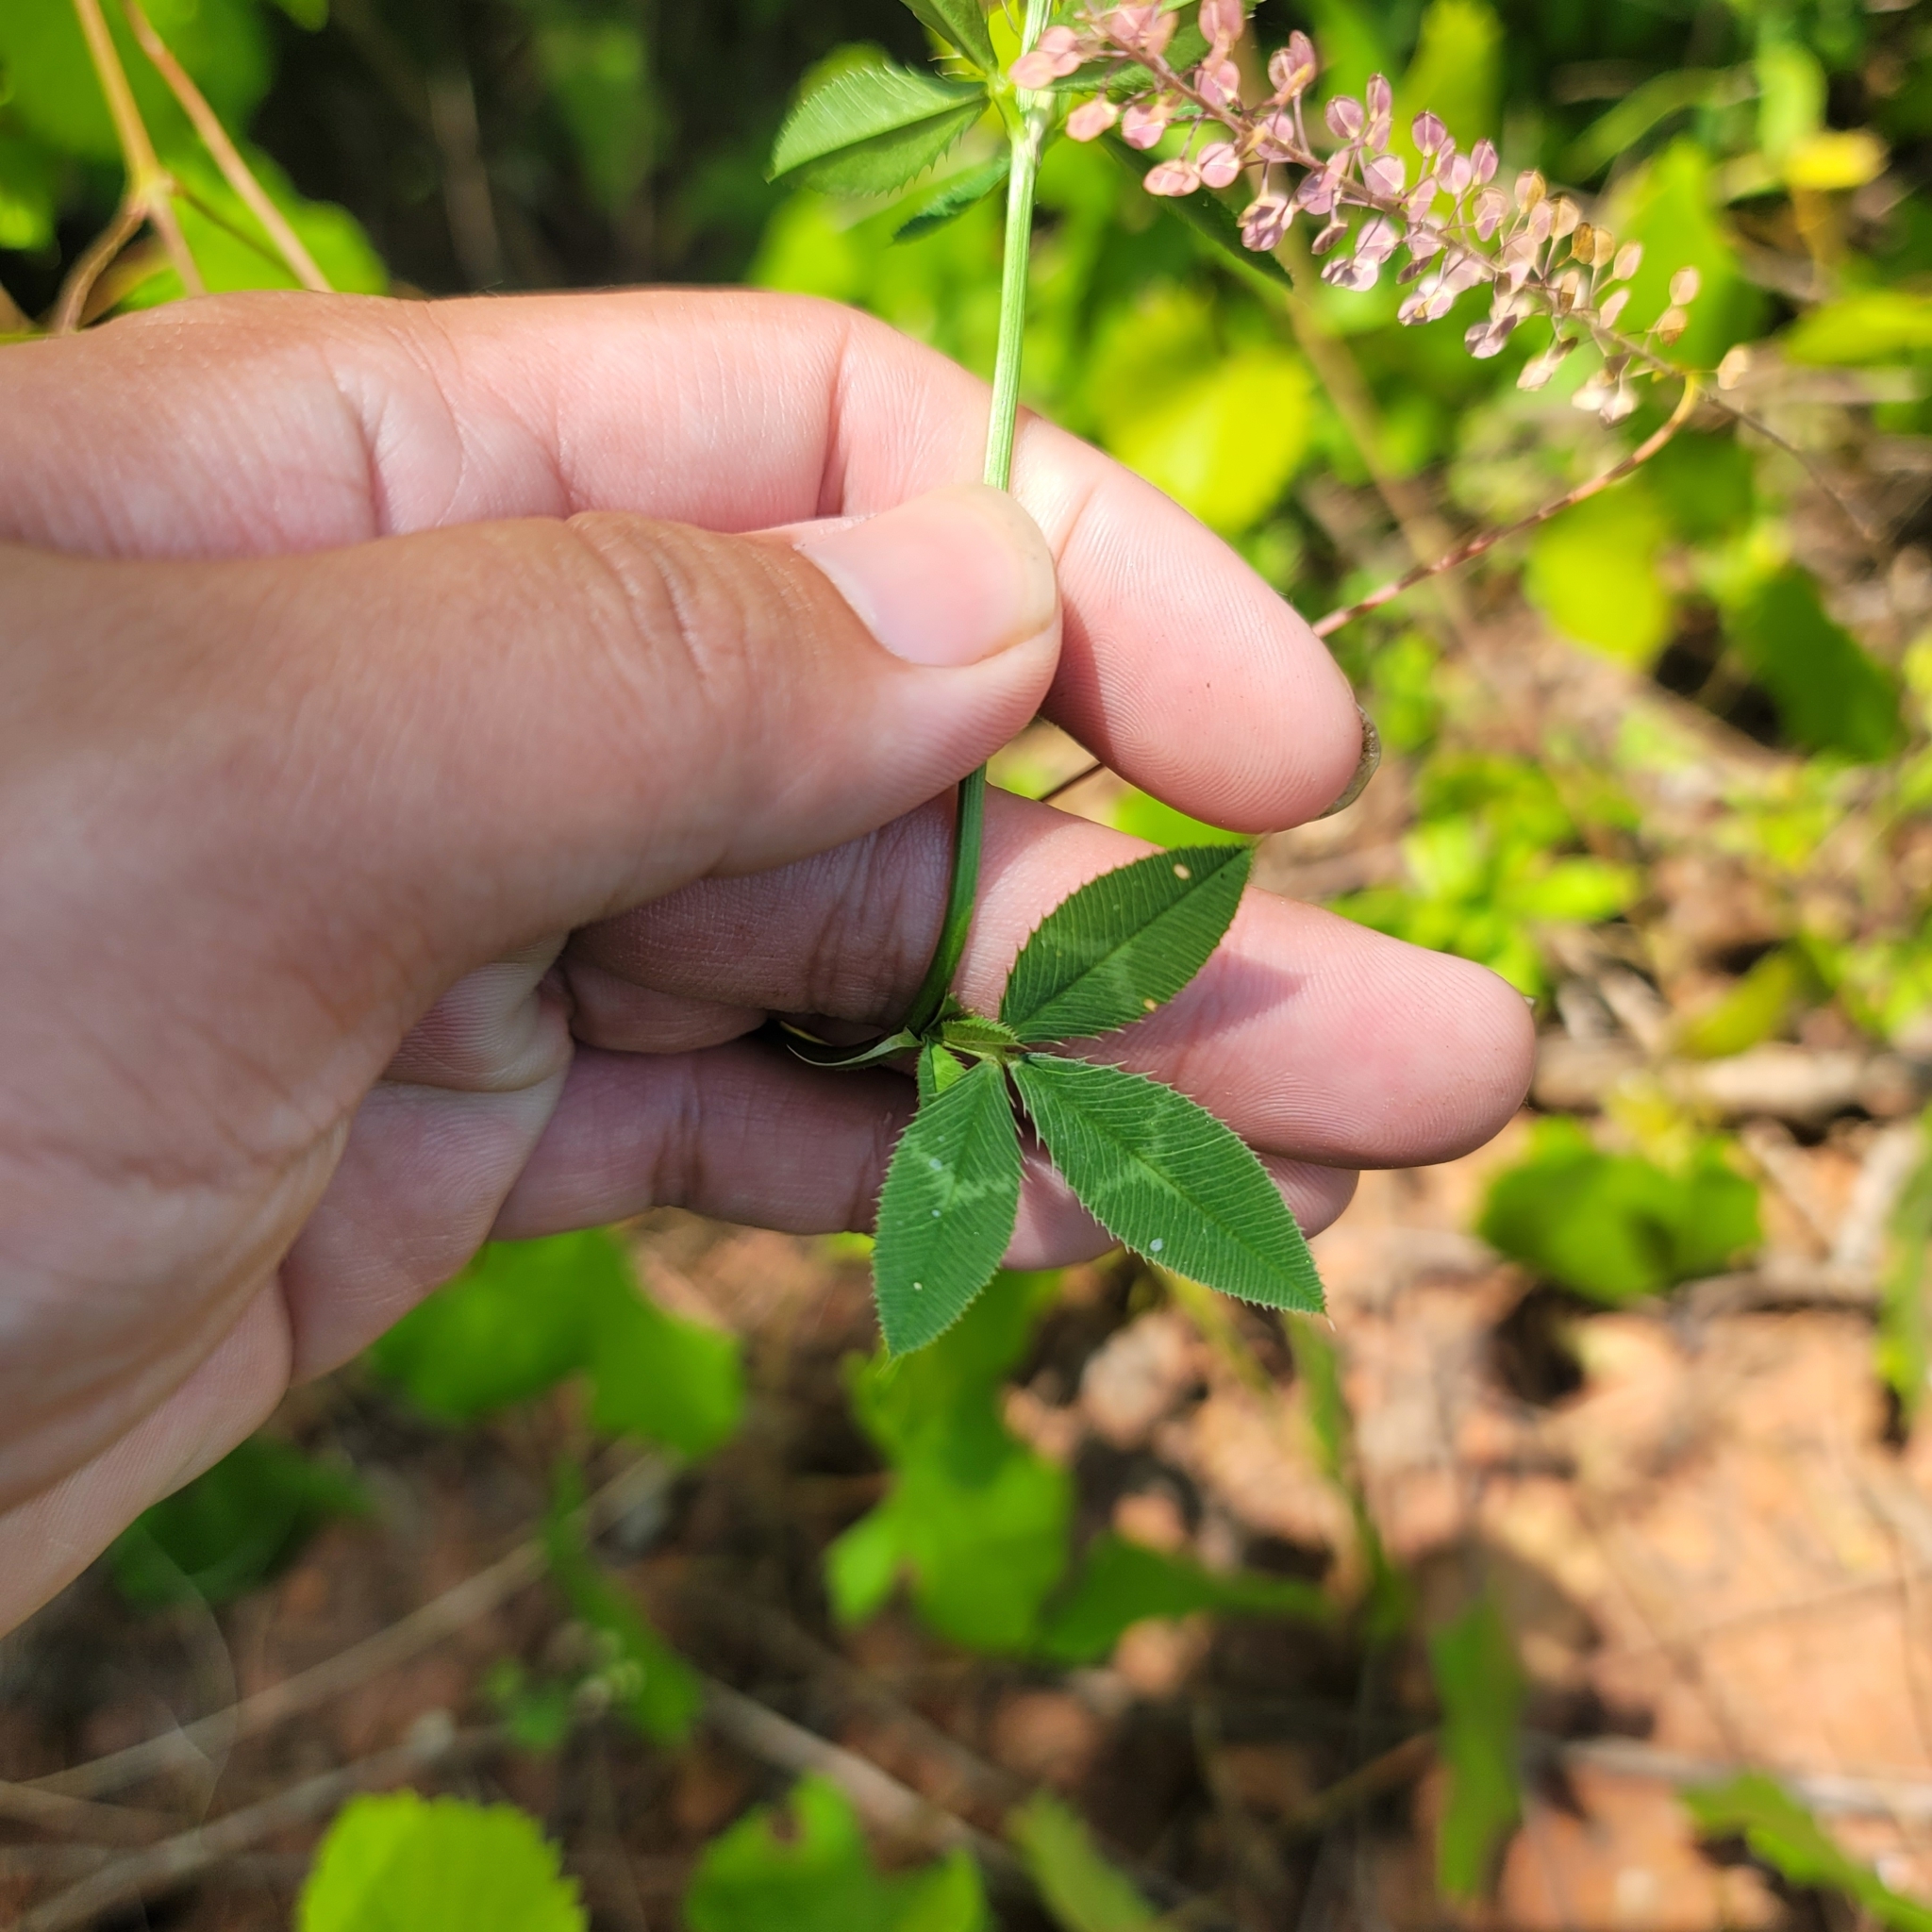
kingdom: Plantae
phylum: Tracheophyta
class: Magnoliopsida
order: Fabales
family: Fabaceae
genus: Trifolium
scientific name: Trifolium vesiculosum
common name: Arrowleaf clover
